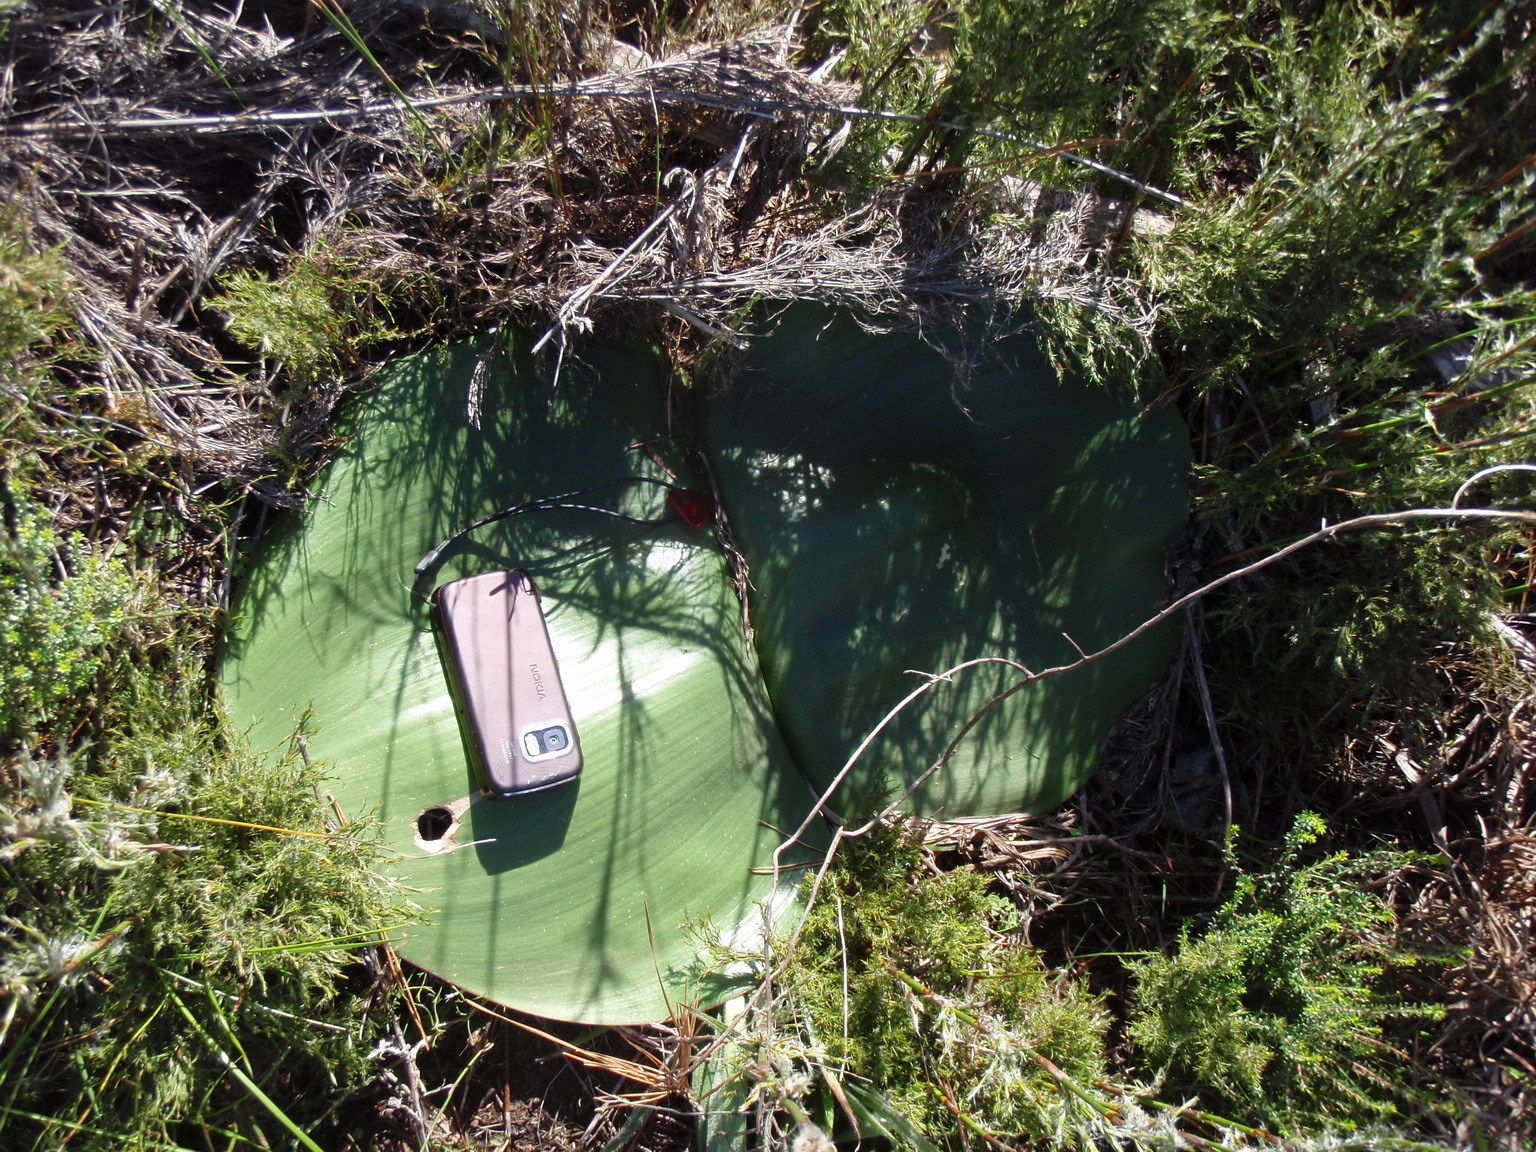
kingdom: Plantae
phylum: Tracheophyta
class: Liliopsida
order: Asparagales
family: Amaryllidaceae
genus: Haemanthus
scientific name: Haemanthus sanguineus
